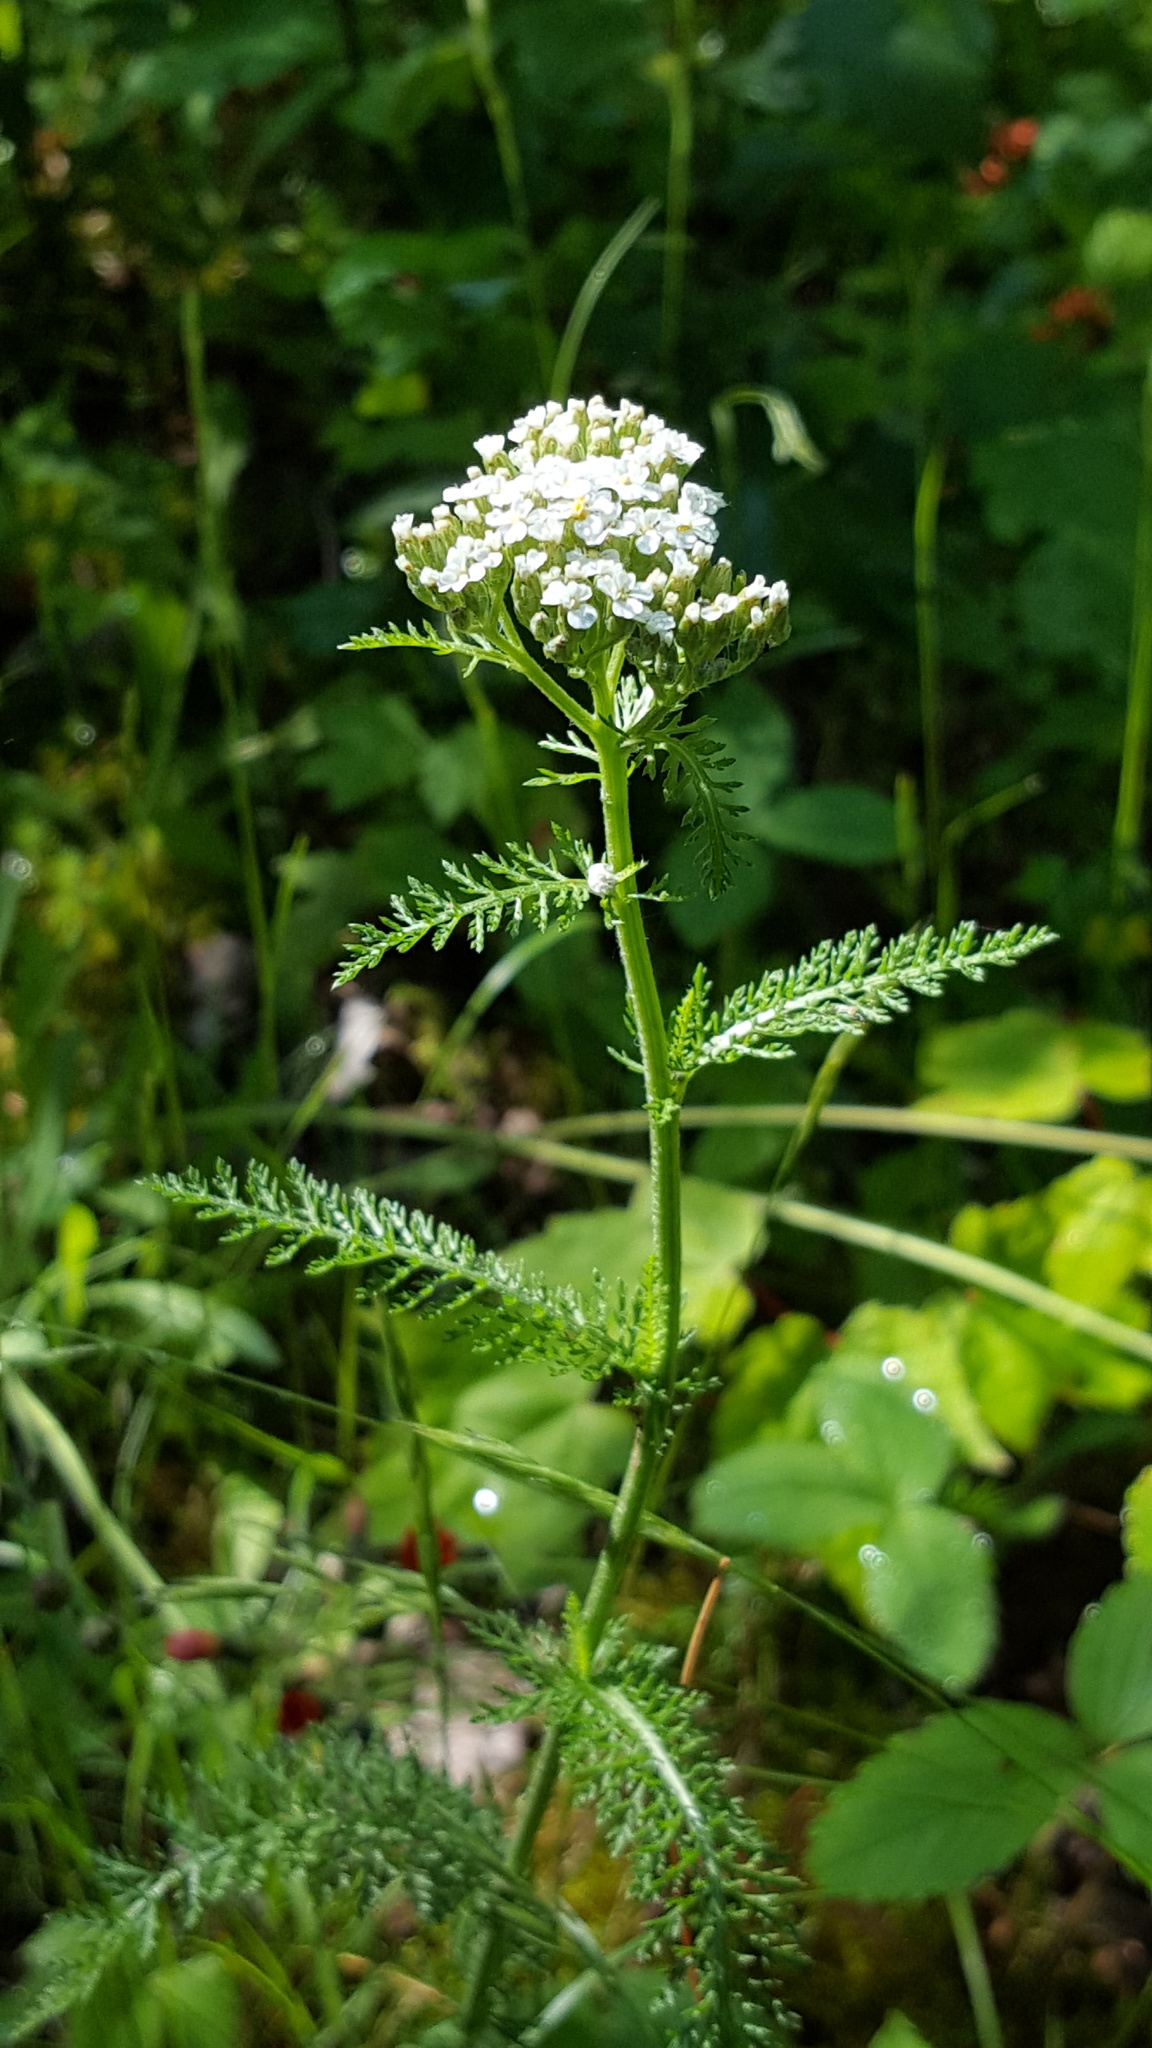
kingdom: Plantae
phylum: Tracheophyta
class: Magnoliopsida
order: Asterales
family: Asteraceae
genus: Achillea
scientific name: Achillea millefolium
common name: Yarrow
